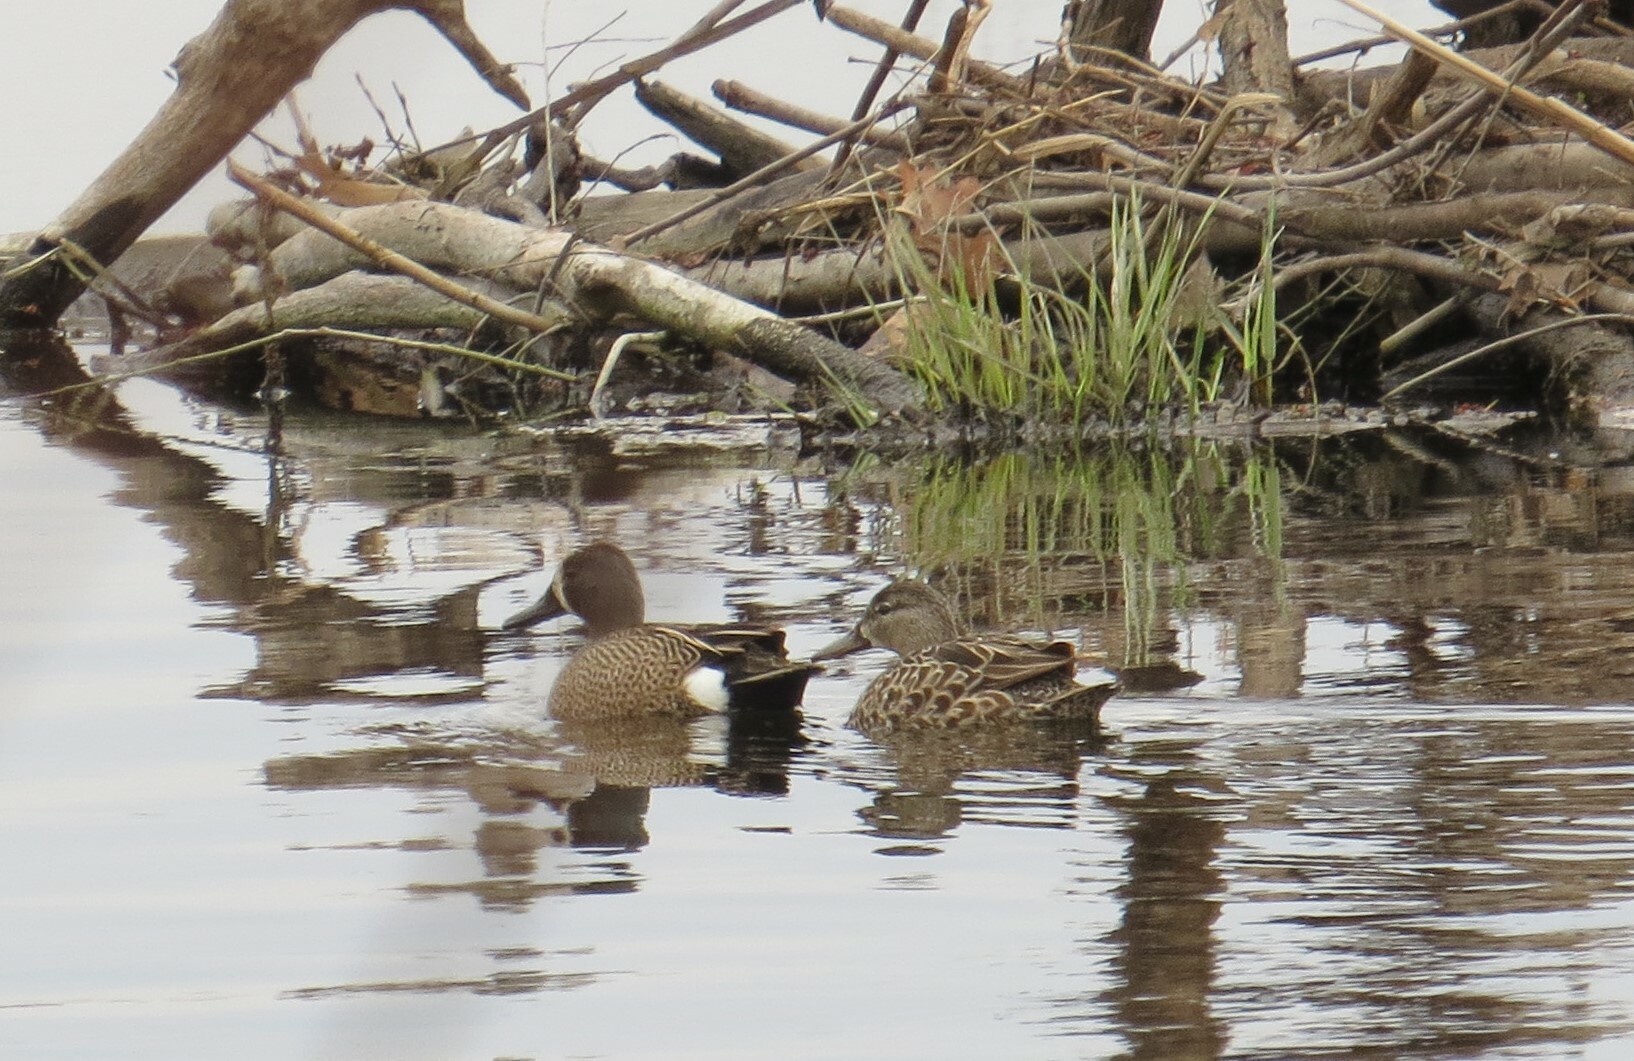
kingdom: Animalia
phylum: Chordata
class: Aves
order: Anseriformes
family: Anatidae
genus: Spatula
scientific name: Spatula discors
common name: Blue-winged teal
